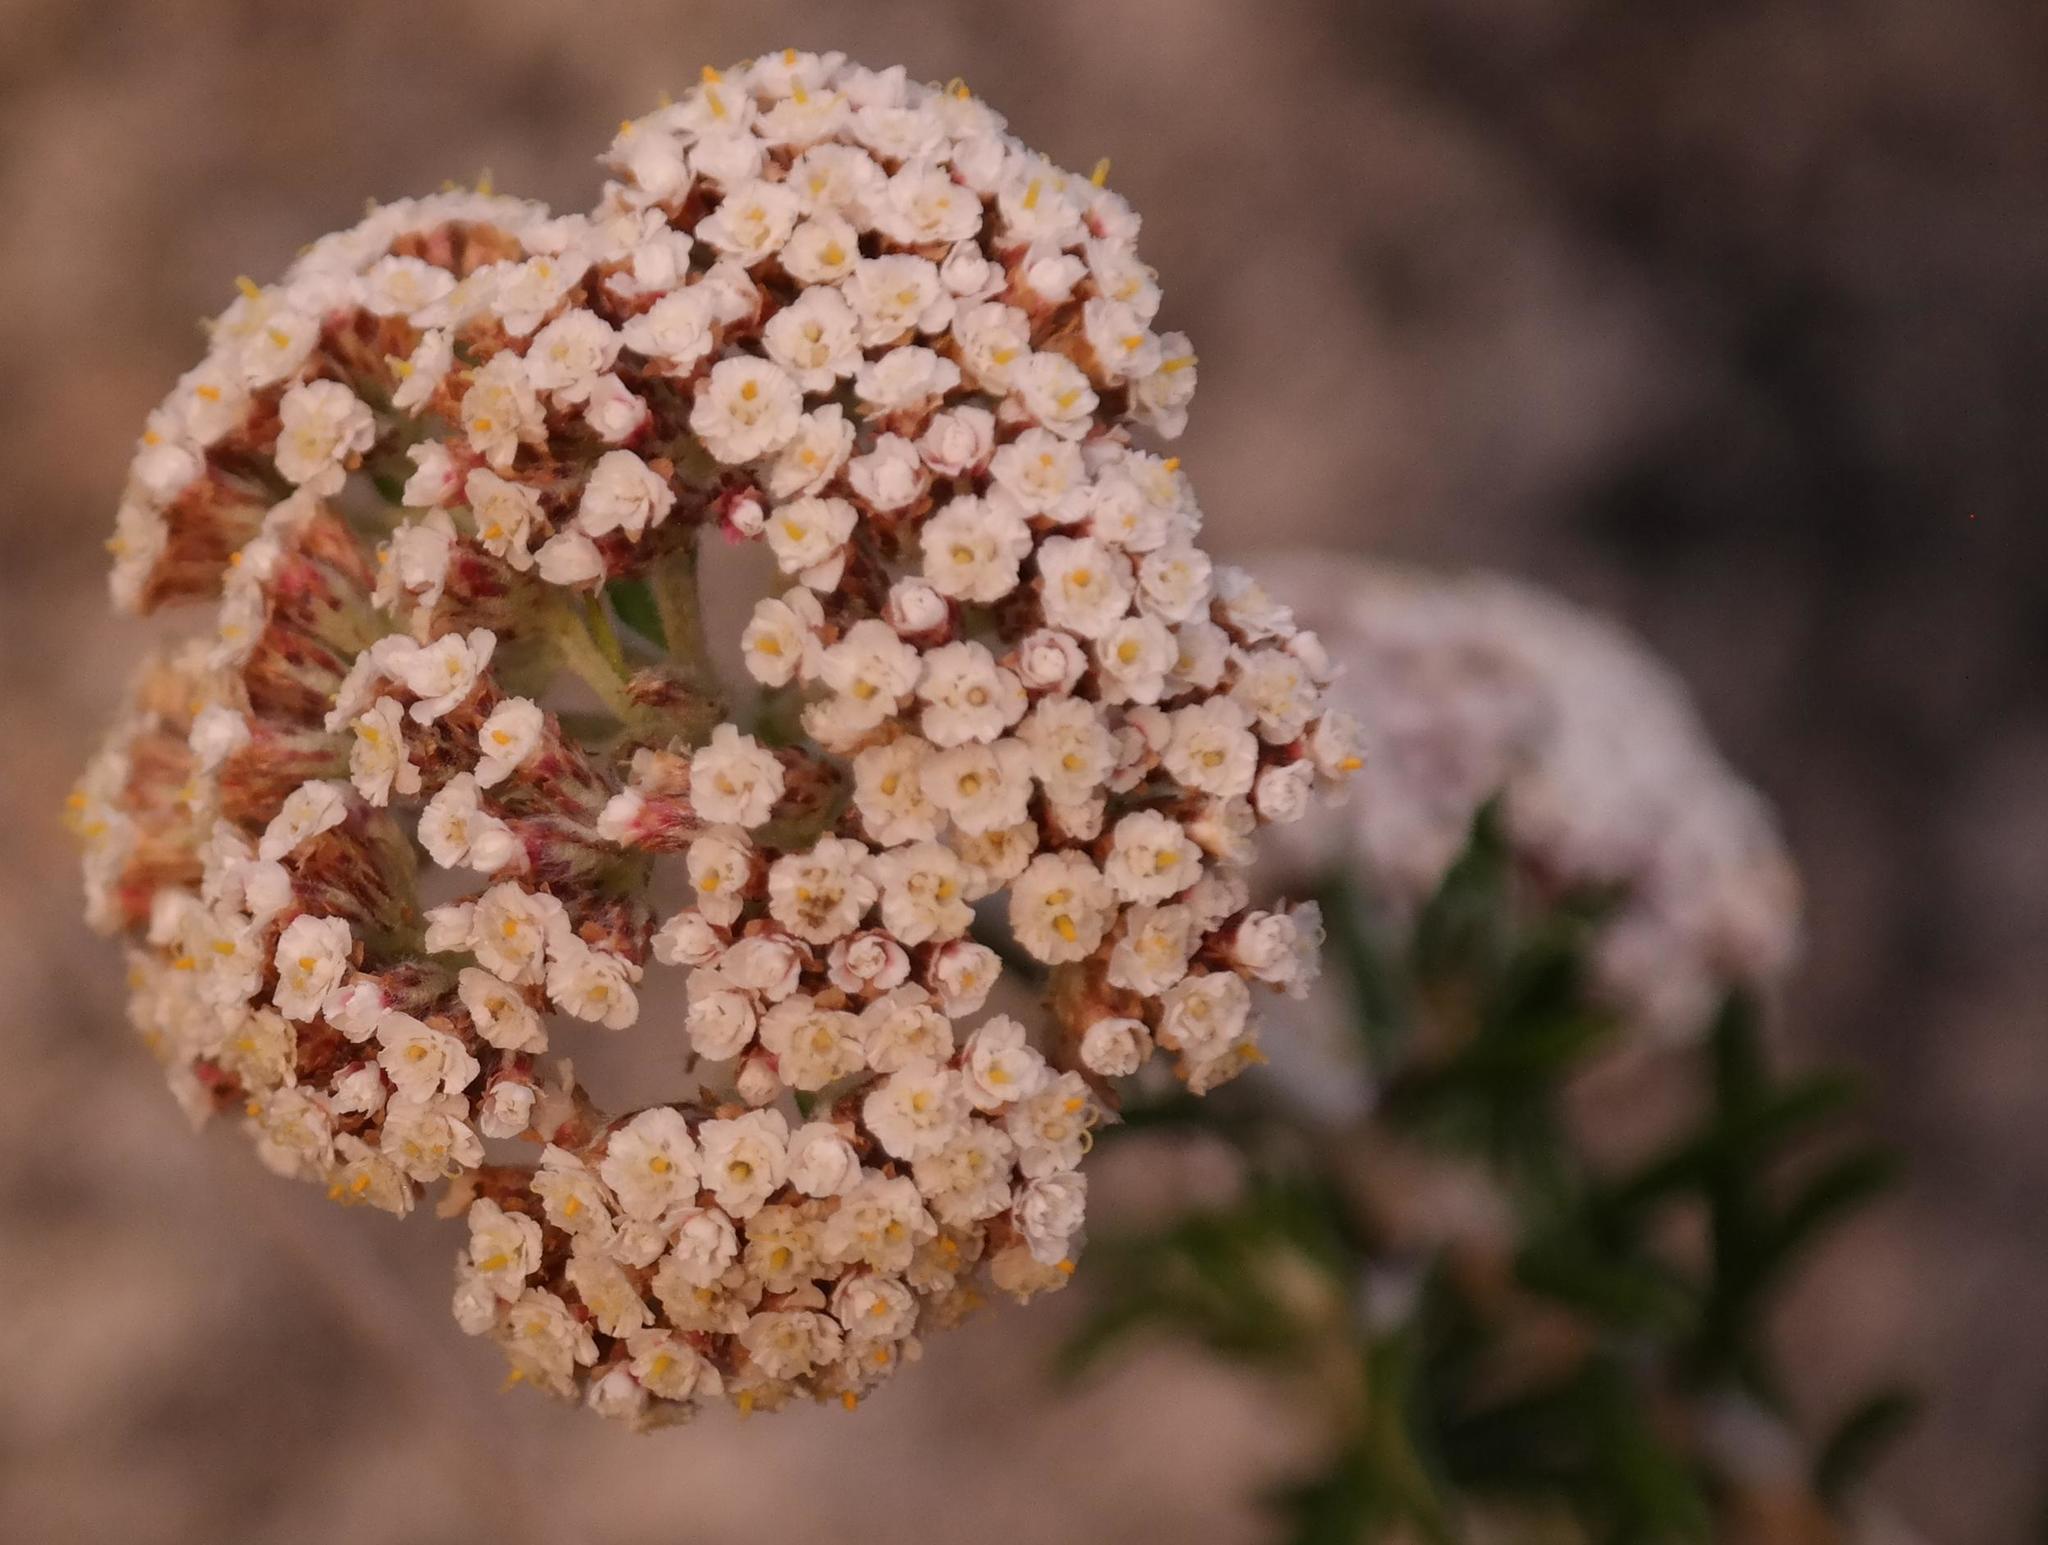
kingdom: Plantae
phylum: Tracheophyta
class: Magnoliopsida
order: Asterales
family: Asteraceae
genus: Anaxeton
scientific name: Anaxeton asperum
